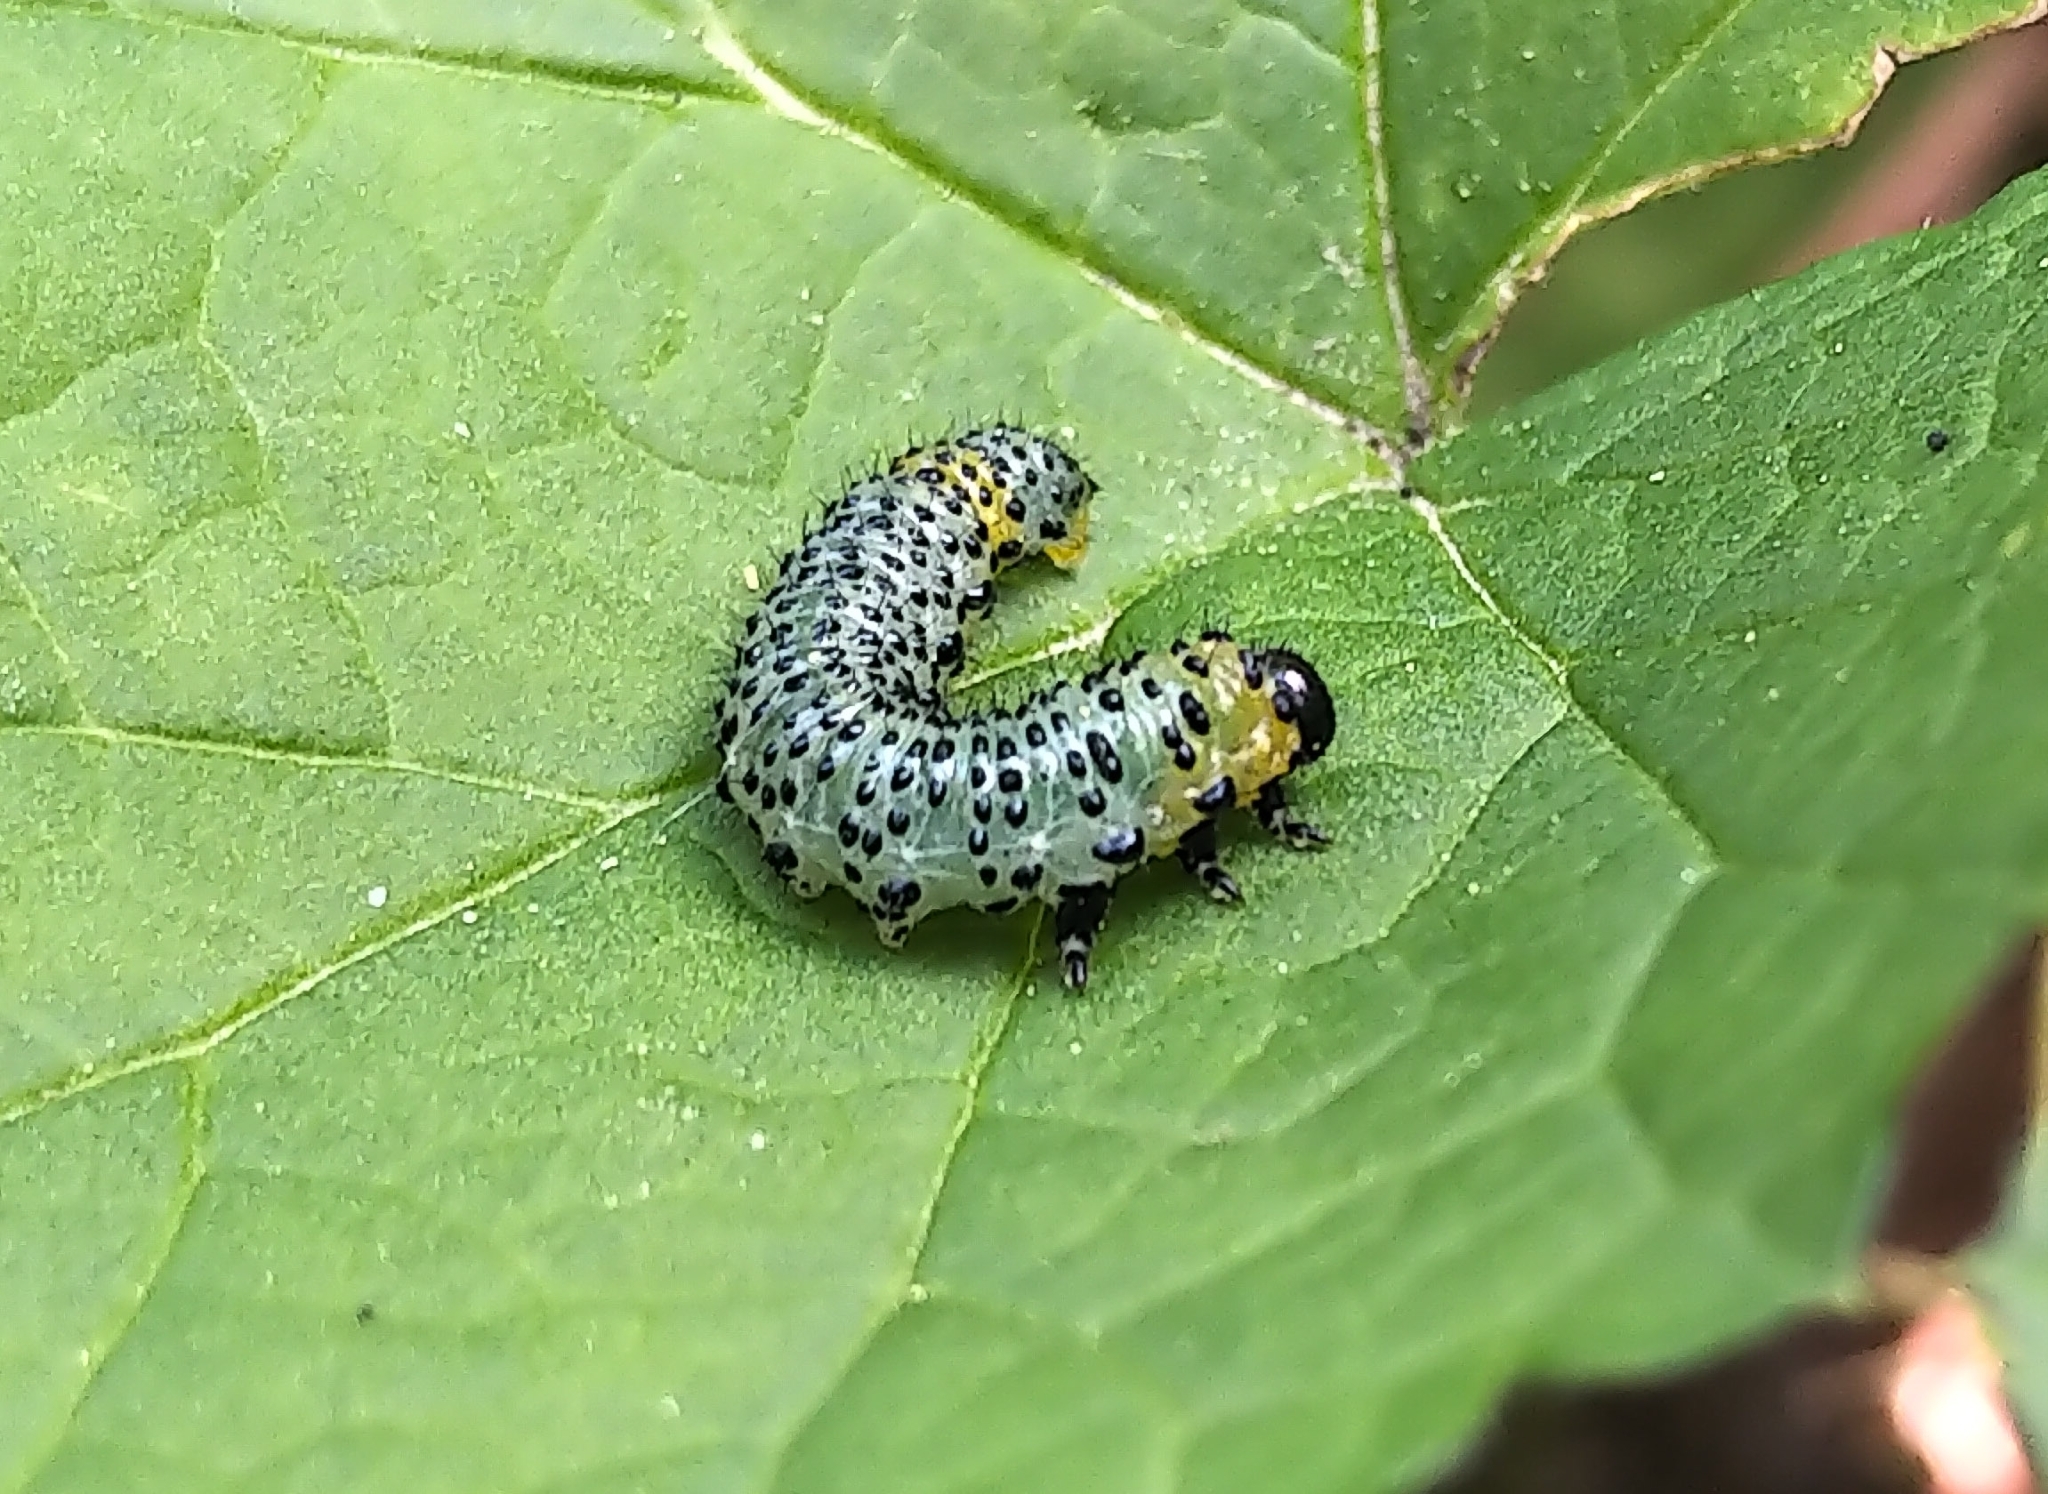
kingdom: Animalia
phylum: Arthropoda
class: Insecta
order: Hymenoptera
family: Tenthredinidae
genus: Nematus
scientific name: Nematus ribesii
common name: Imported currantworm
